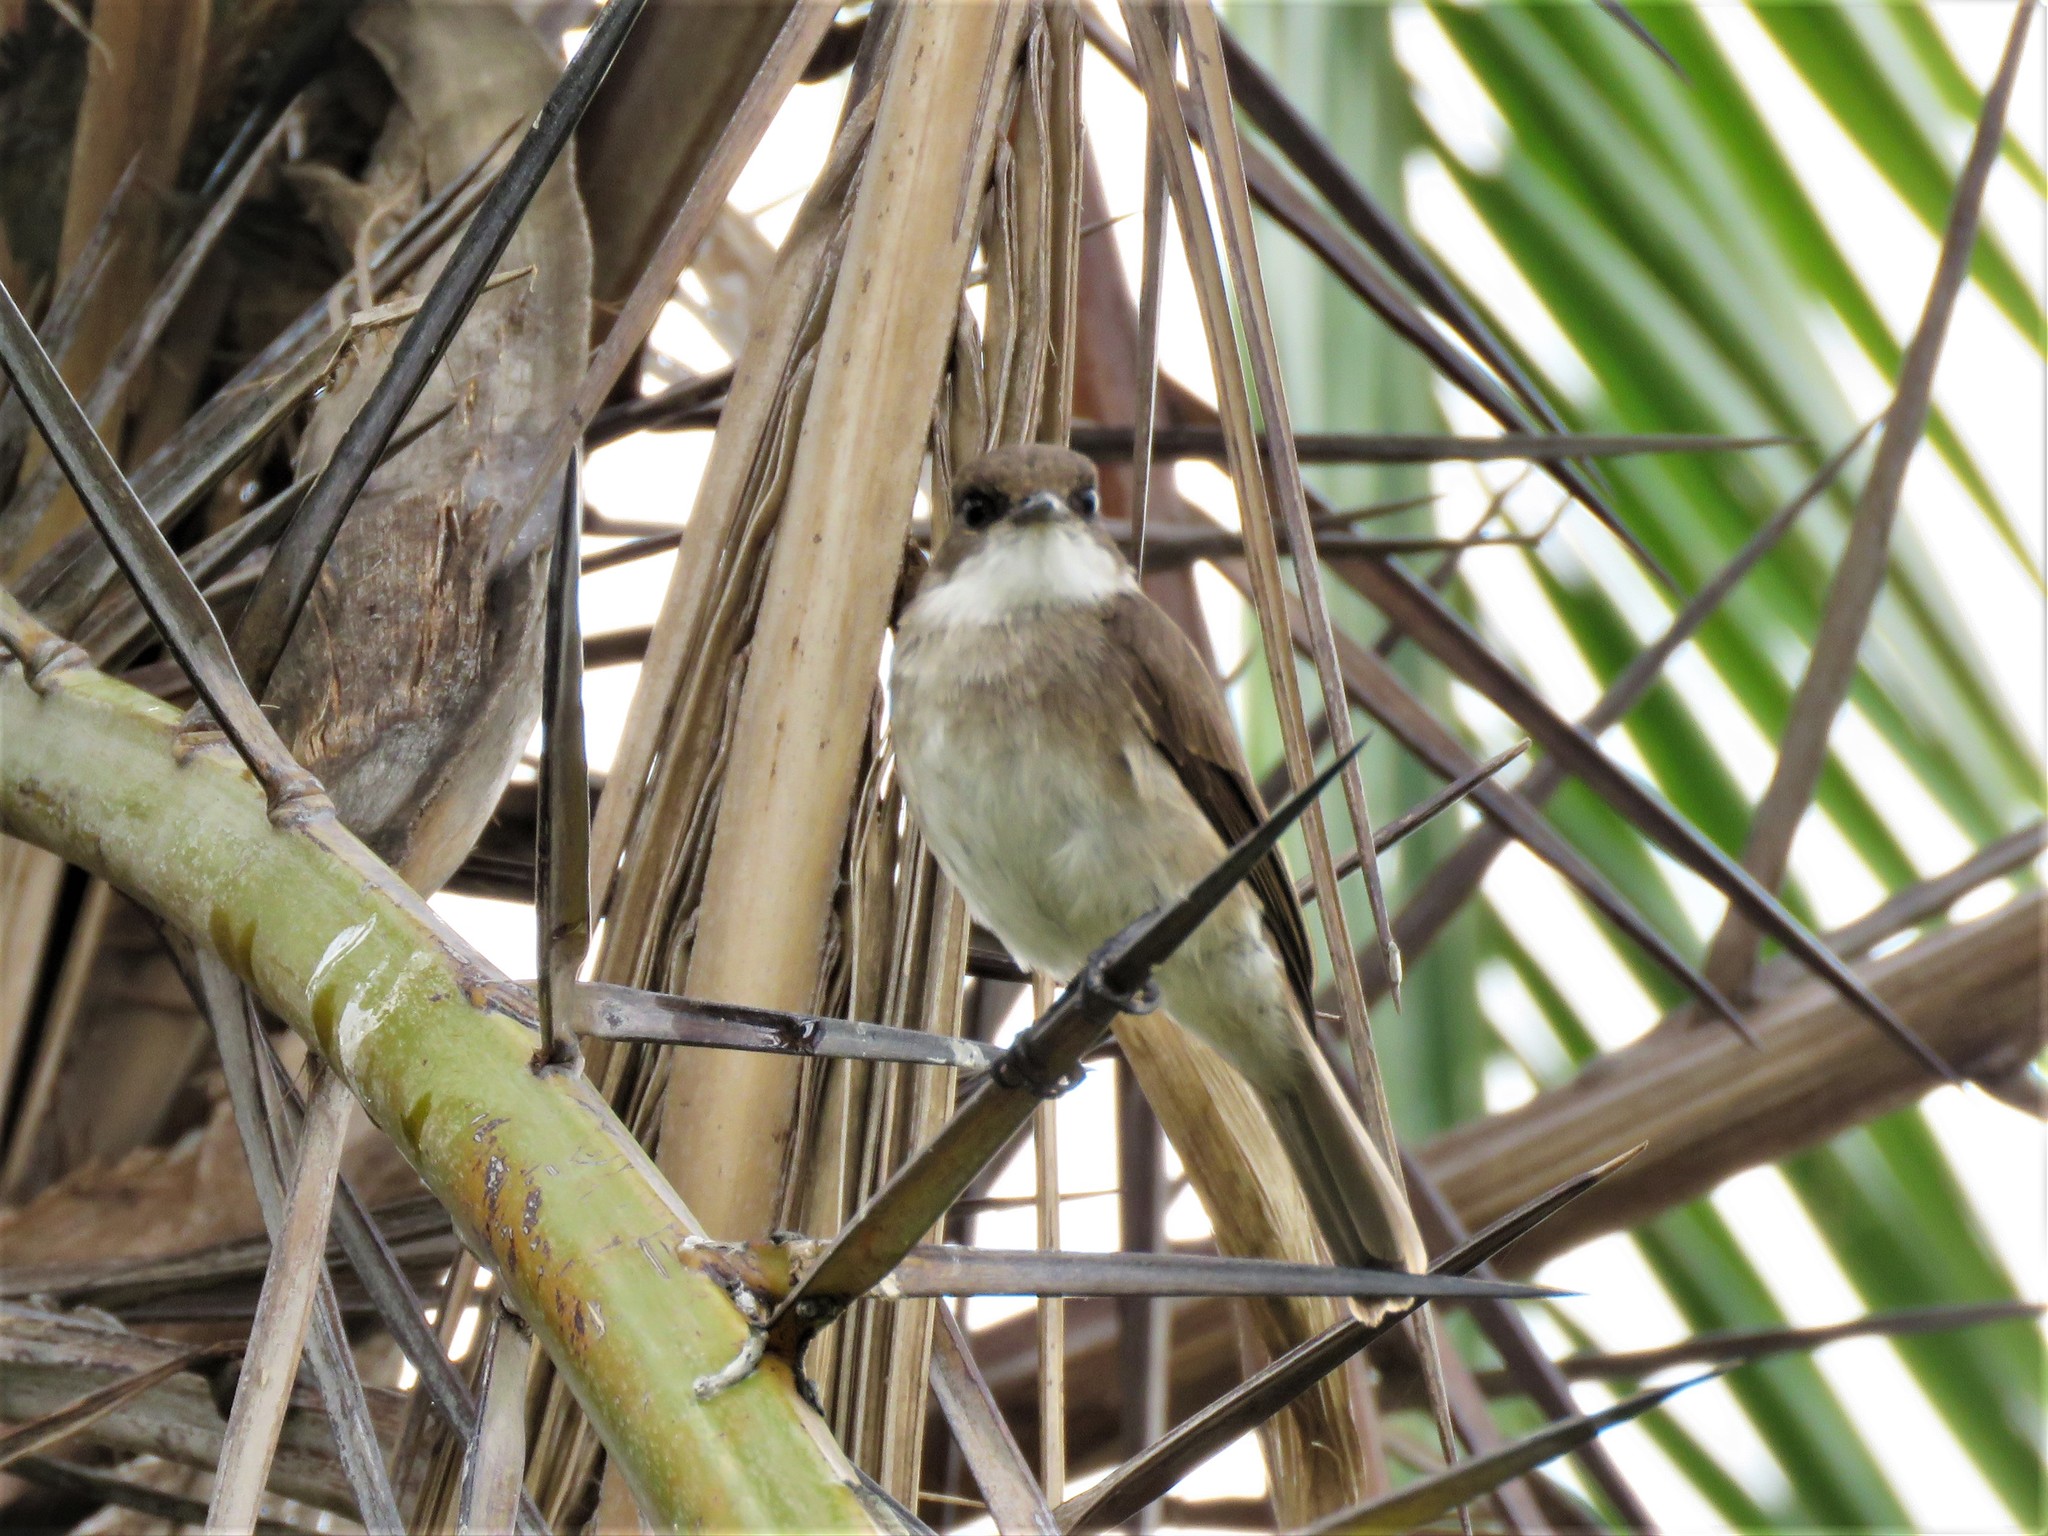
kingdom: Animalia
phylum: Chordata
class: Aves
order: Passeriformes
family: Muscicapidae
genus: Muscicapa
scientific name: Muscicapa aquatica
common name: Swamp flycatcher
